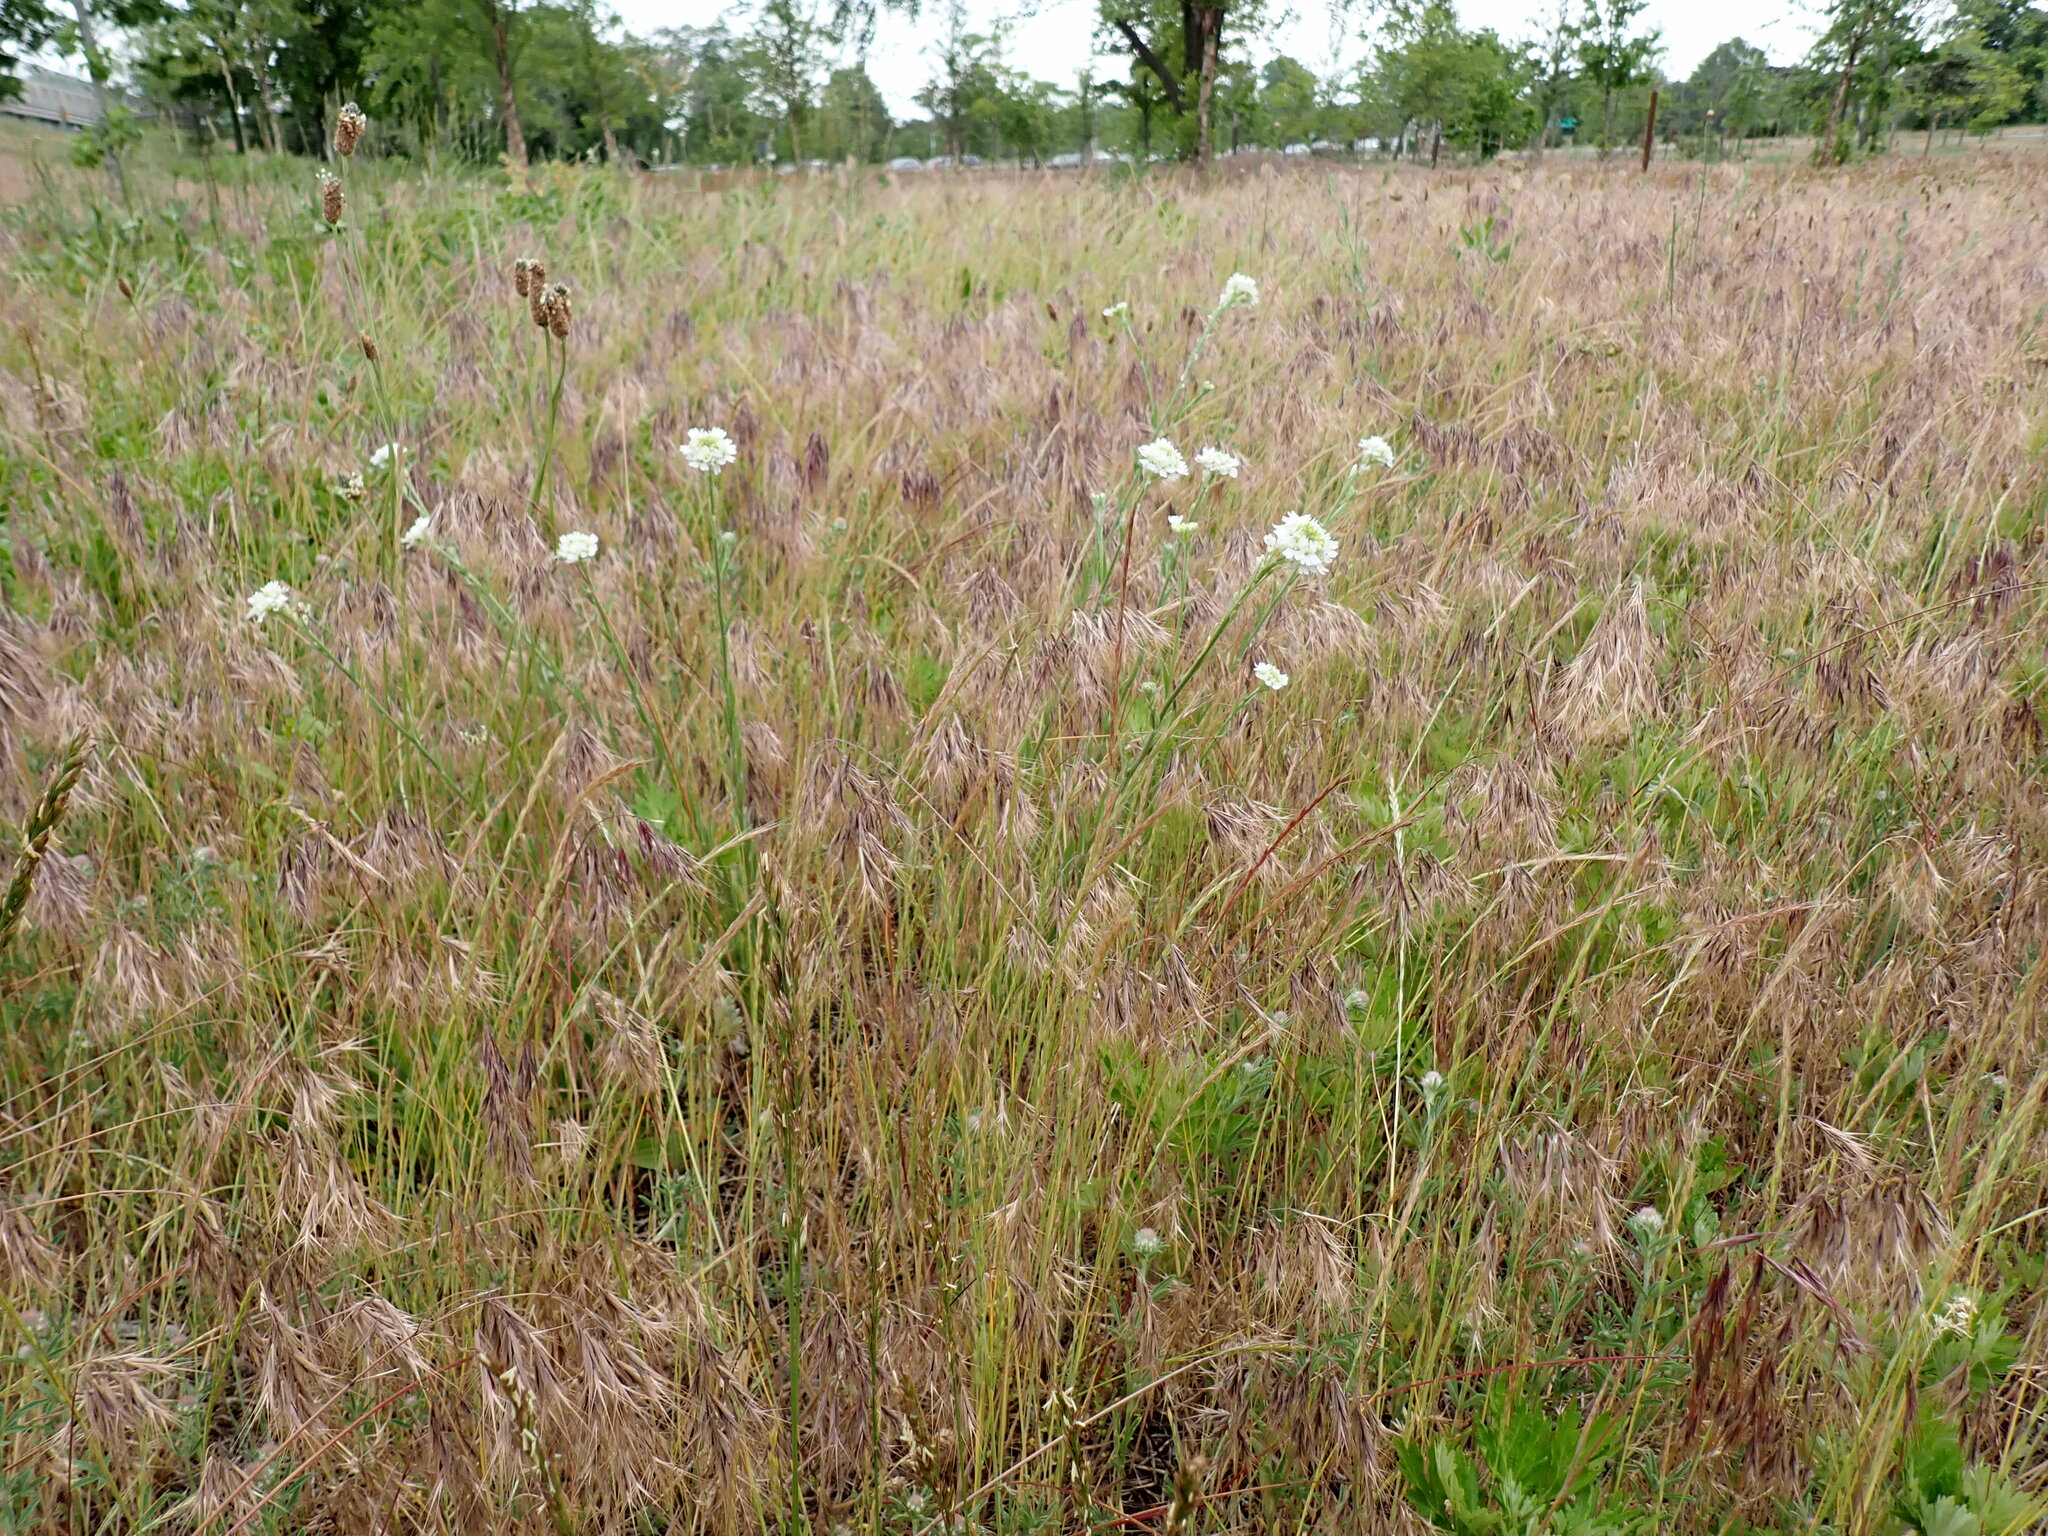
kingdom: Plantae
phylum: Tracheophyta
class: Magnoliopsida
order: Brassicales
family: Brassicaceae
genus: Berteroa
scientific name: Berteroa incana
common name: Hoary alison
